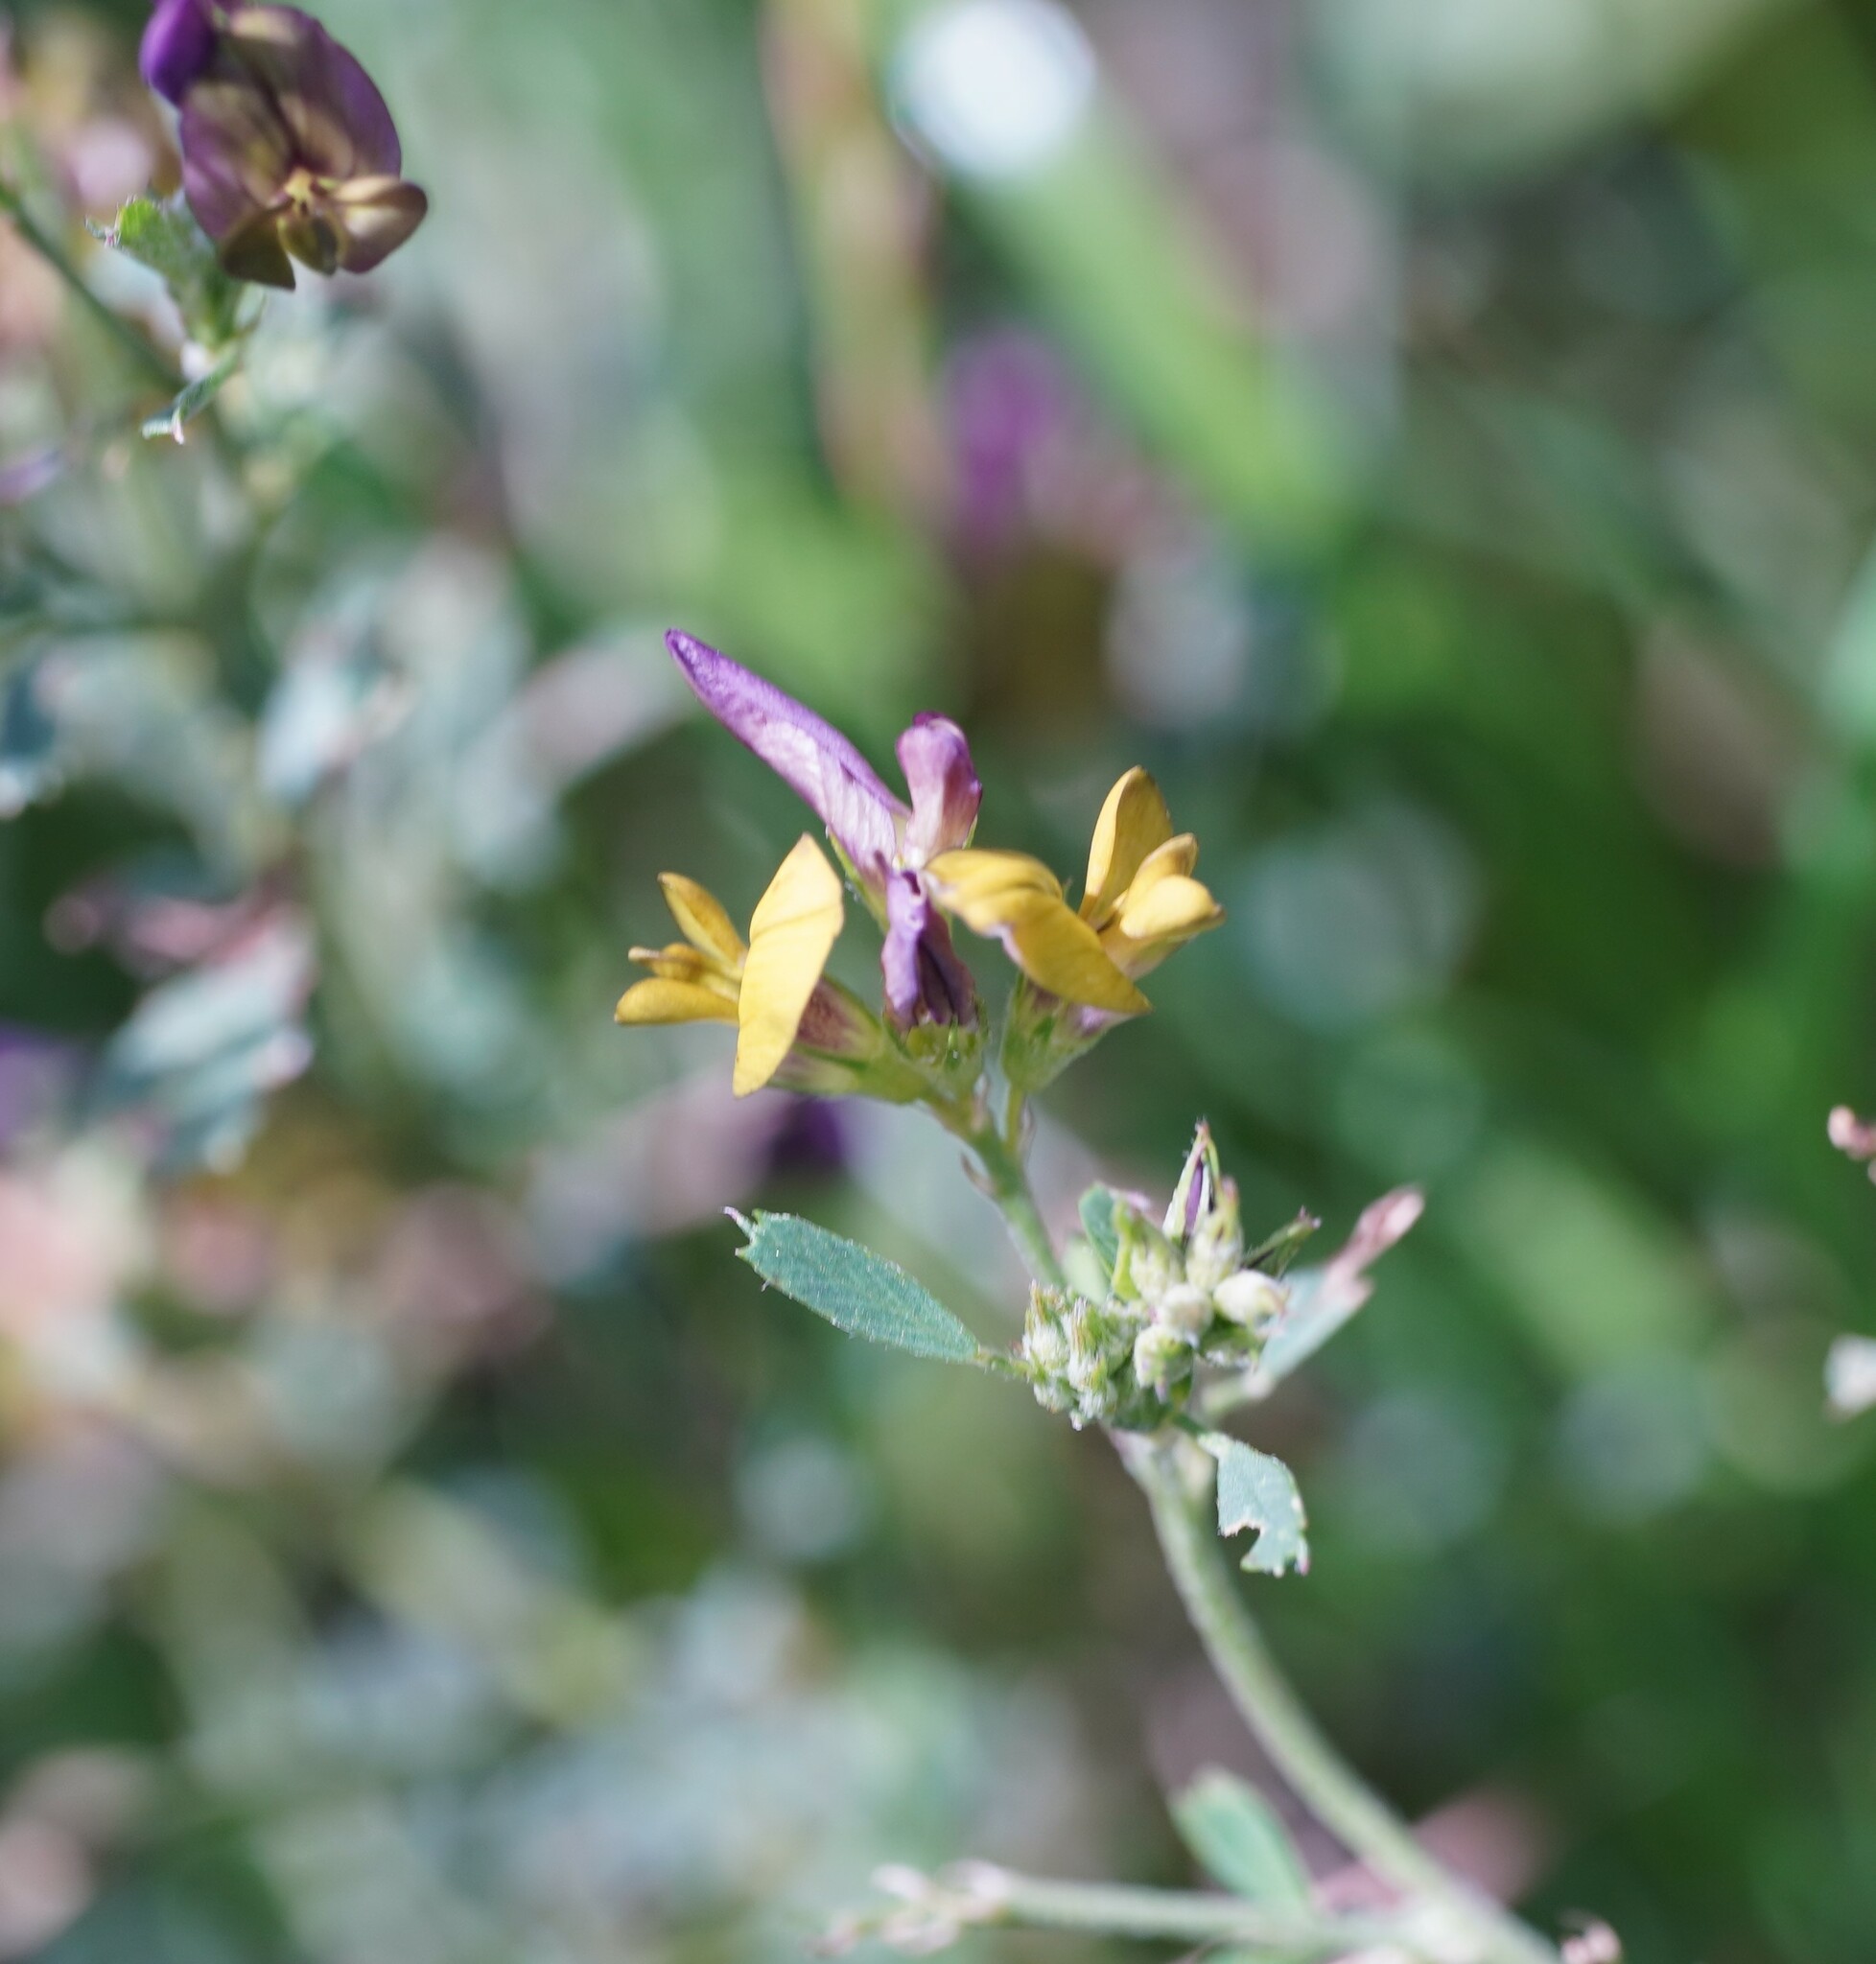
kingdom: Plantae
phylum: Tracheophyta
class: Magnoliopsida
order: Fabales
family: Fabaceae
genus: Medicago
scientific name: Medicago varia
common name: Sand lucerne
